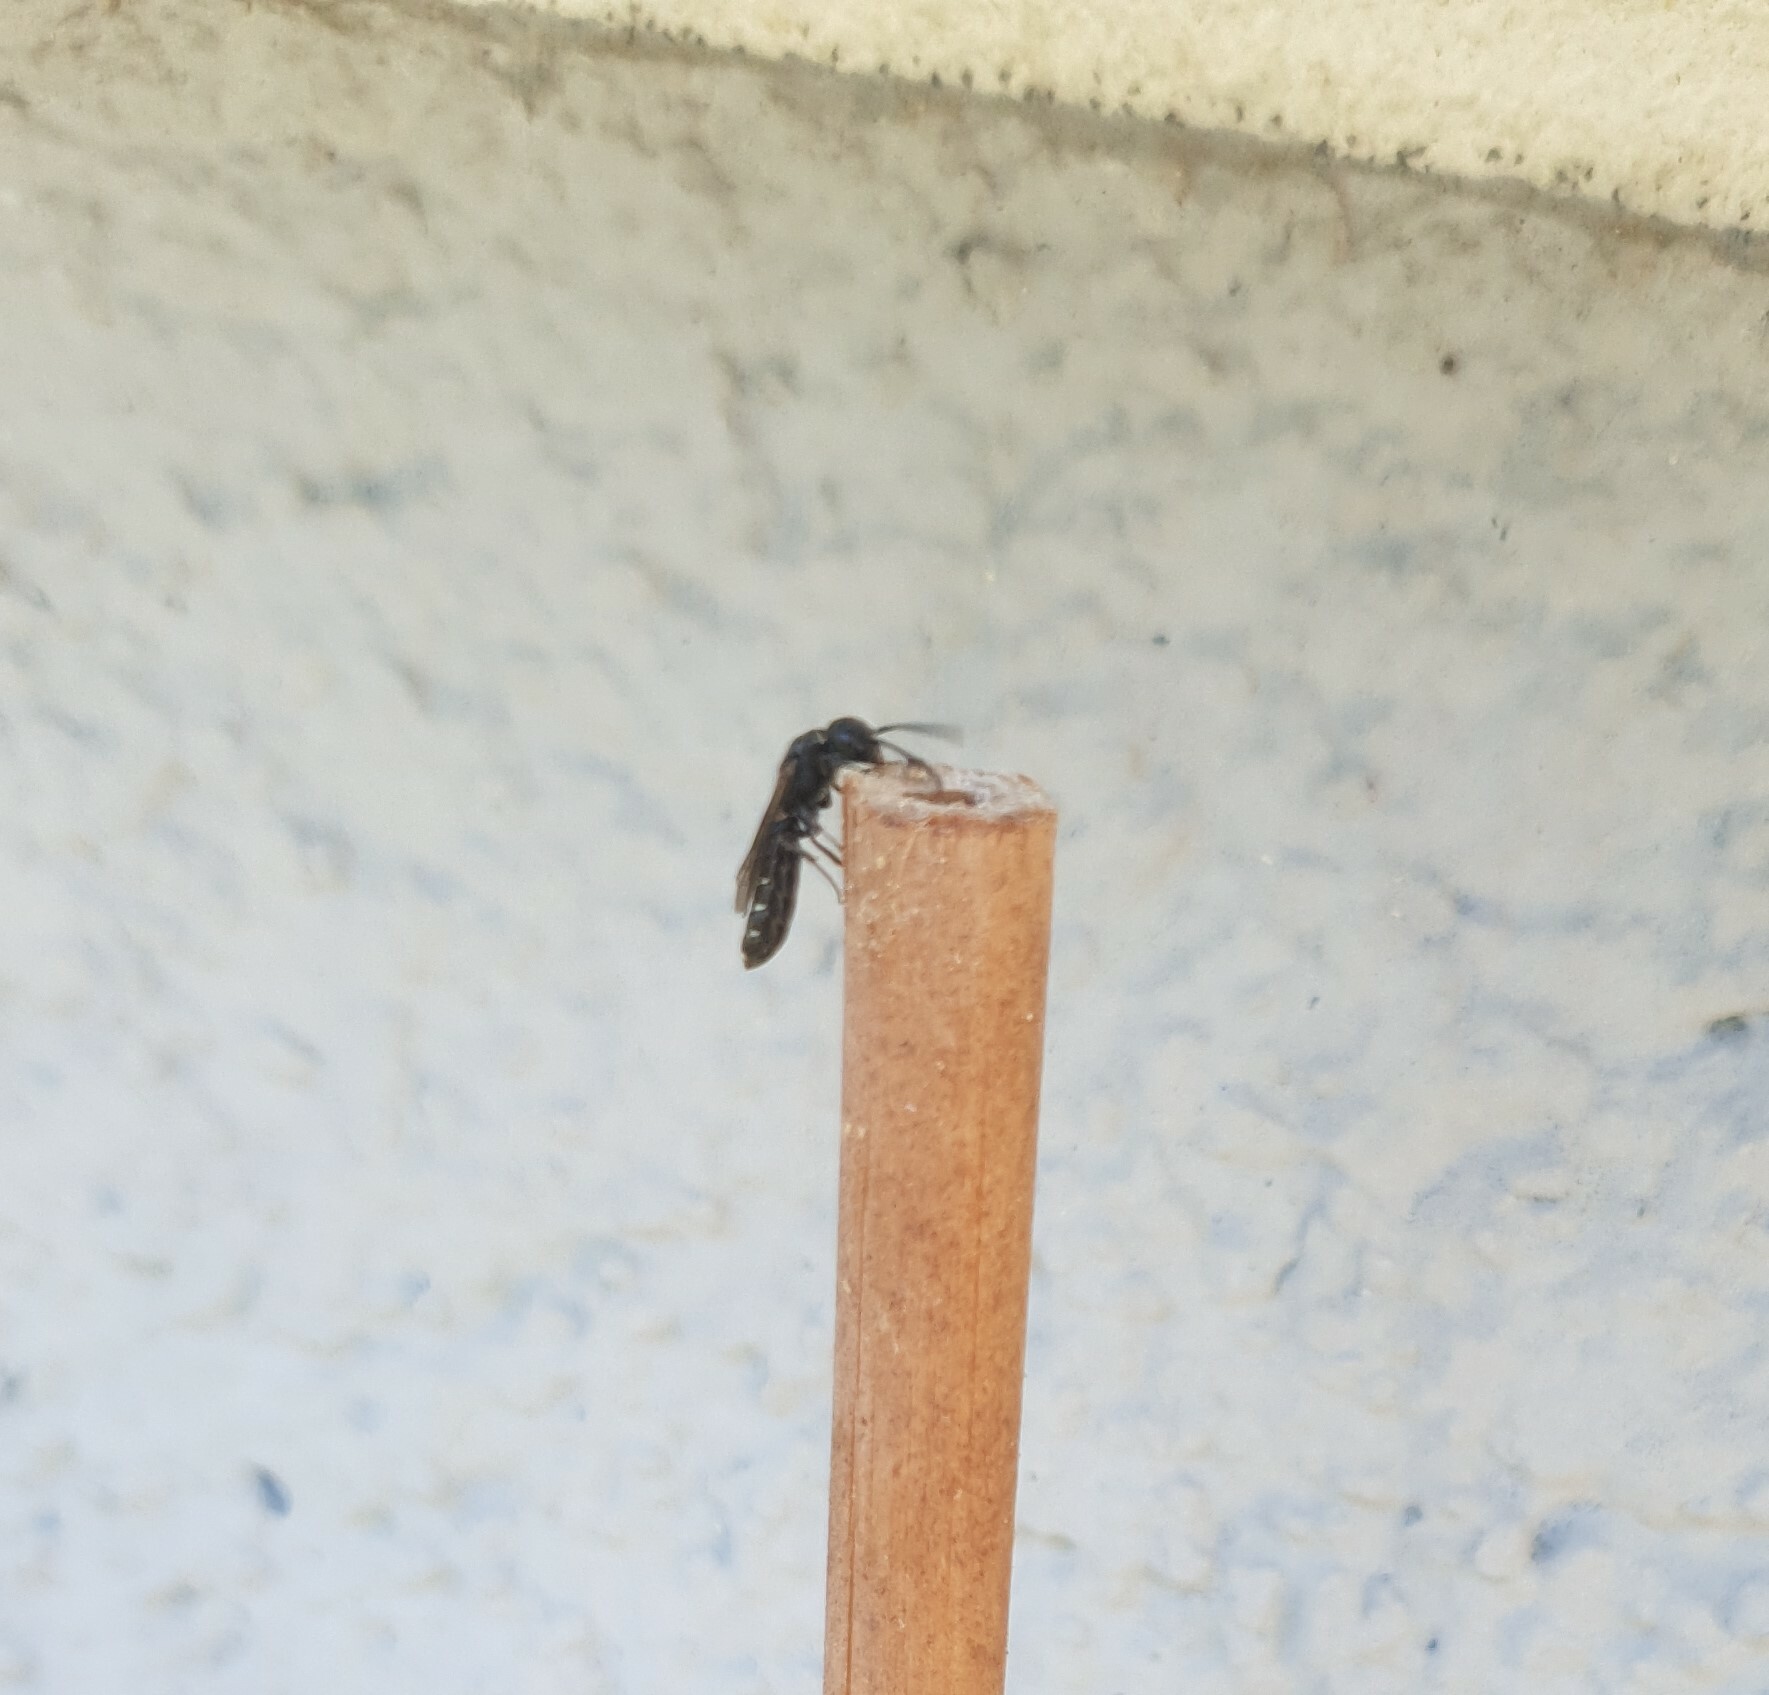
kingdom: Animalia
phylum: Arthropoda
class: Insecta
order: Hymenoptera
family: Sapygidae
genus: Sapygina
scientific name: Sapygina decemguttata
